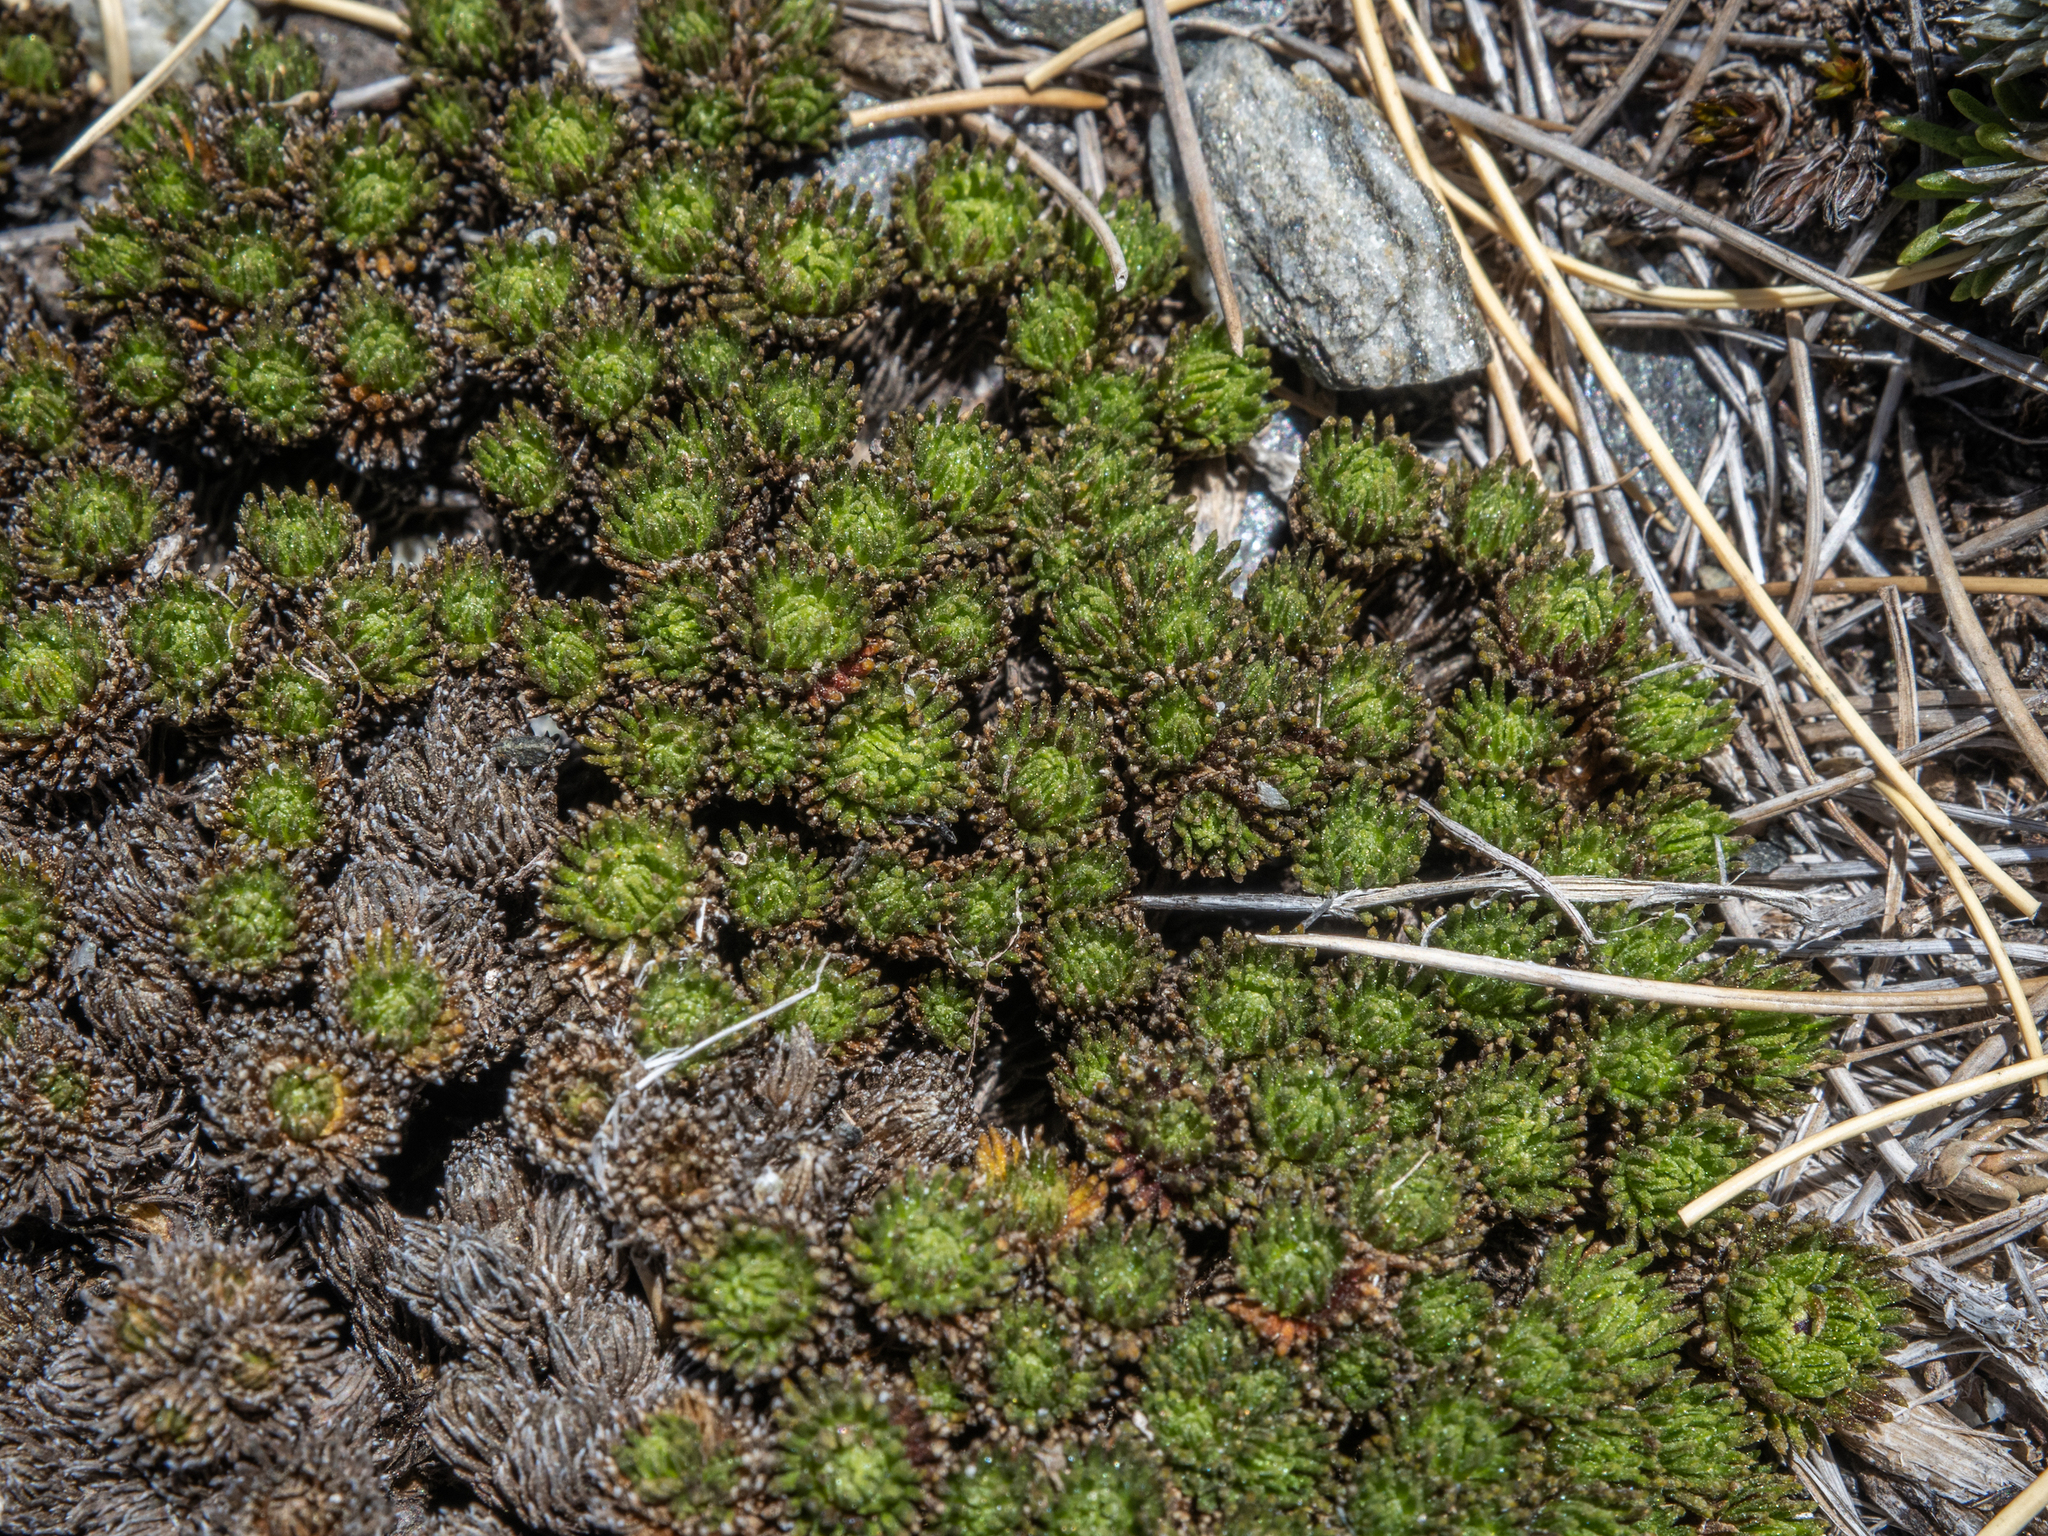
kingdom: Plantae
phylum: Tracheophyta
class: Magnoliopsida
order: Asterales
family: Asteraceae
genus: Leptinella
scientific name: Leptinella goyenii
